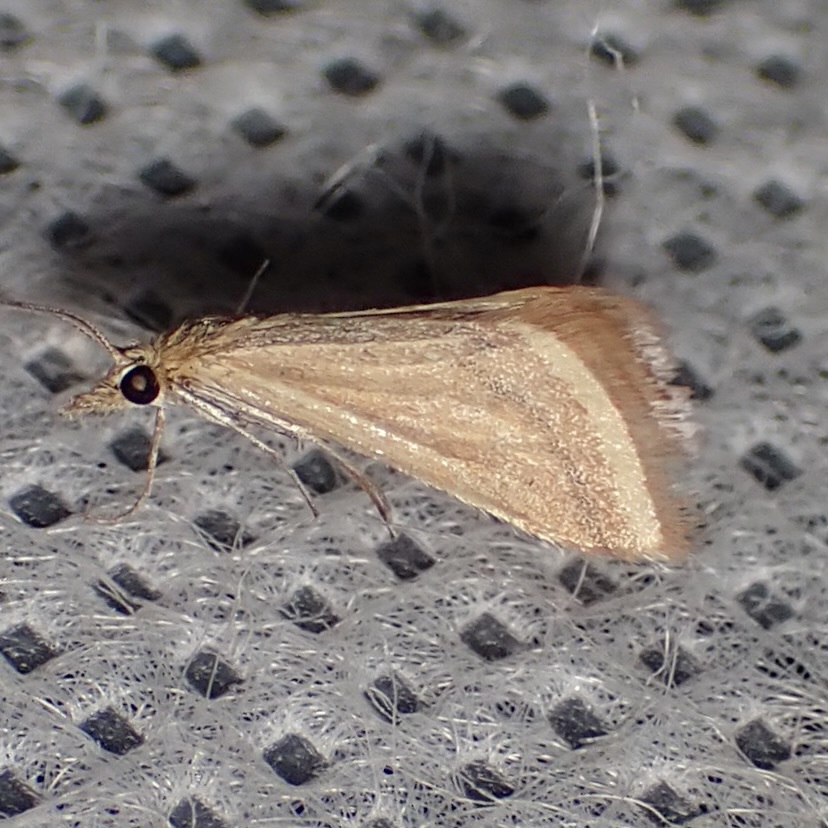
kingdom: Animalia
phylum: Arthropoda
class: Insecta
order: Lepidoptera
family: Crambidae
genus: Microtheoris
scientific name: Microtheoris ophionalis
